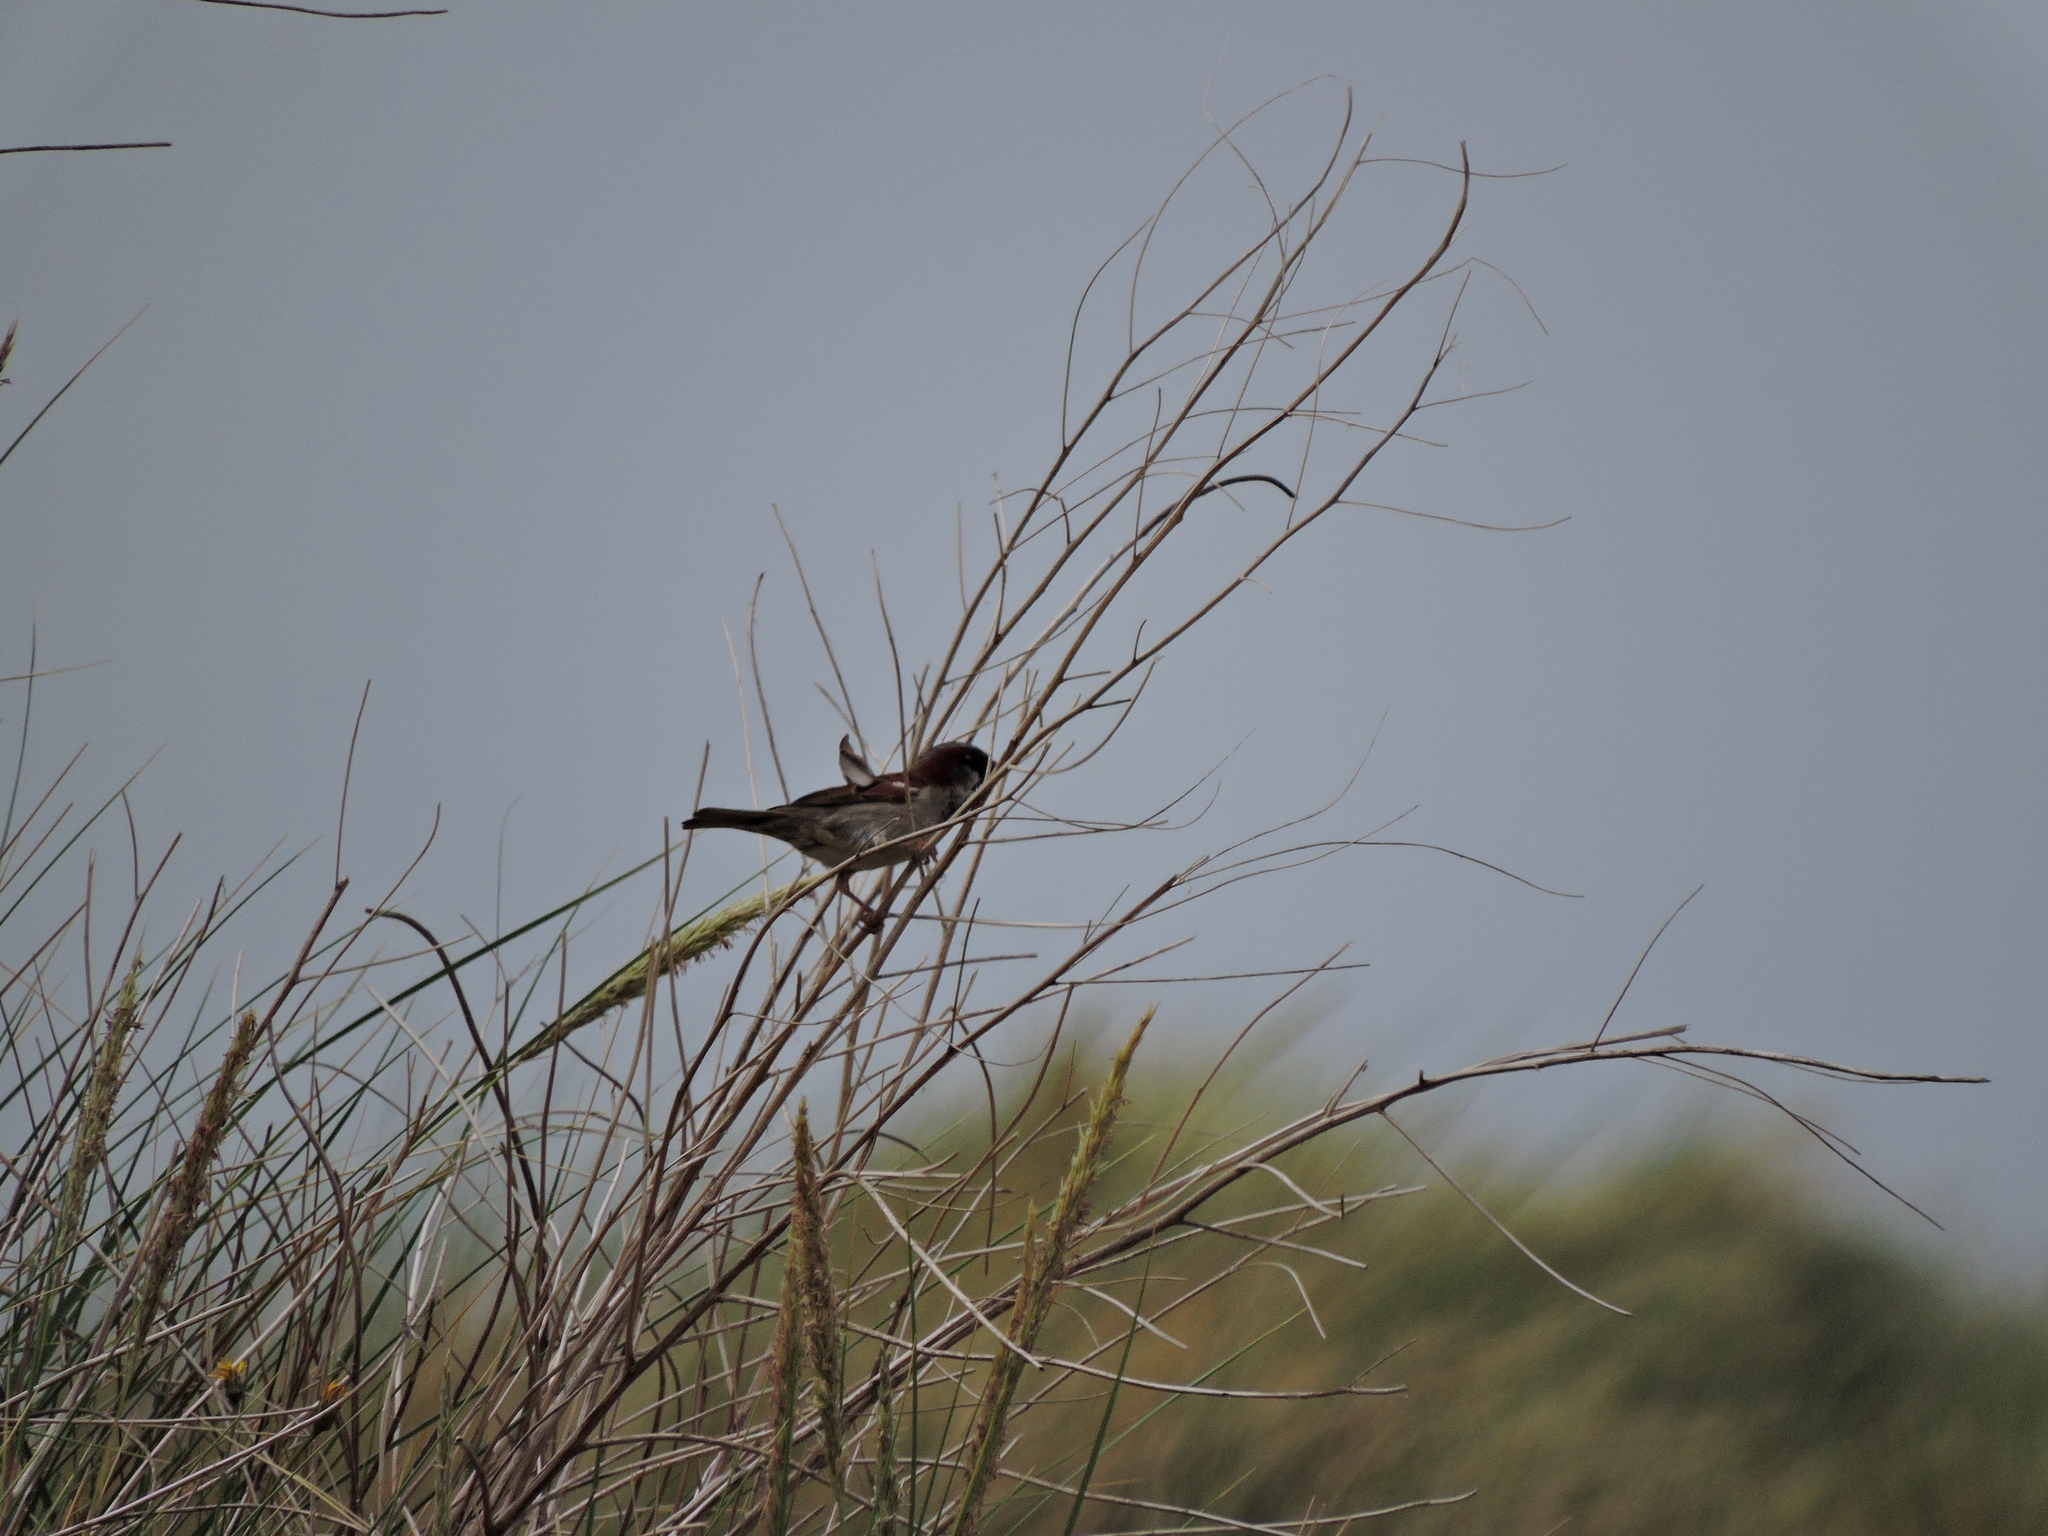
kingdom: Animalia
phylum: Chordata
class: Aves
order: Passeriformes
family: Passeridae
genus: Passer
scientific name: Passer domesticus
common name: House sparrow
